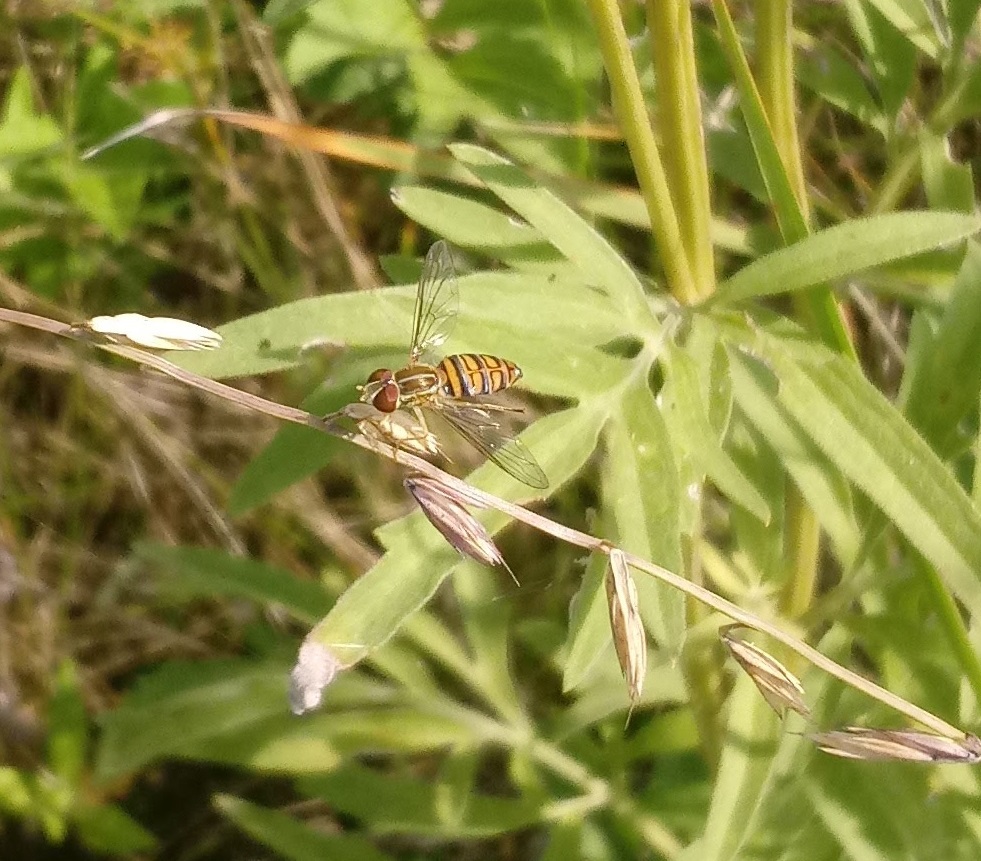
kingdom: Animalia
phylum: Arthropoda
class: Insecta
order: Diptera
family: Syrphidae
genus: Toxomerus
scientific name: Toxomerus politus
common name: Maize calligrapher
